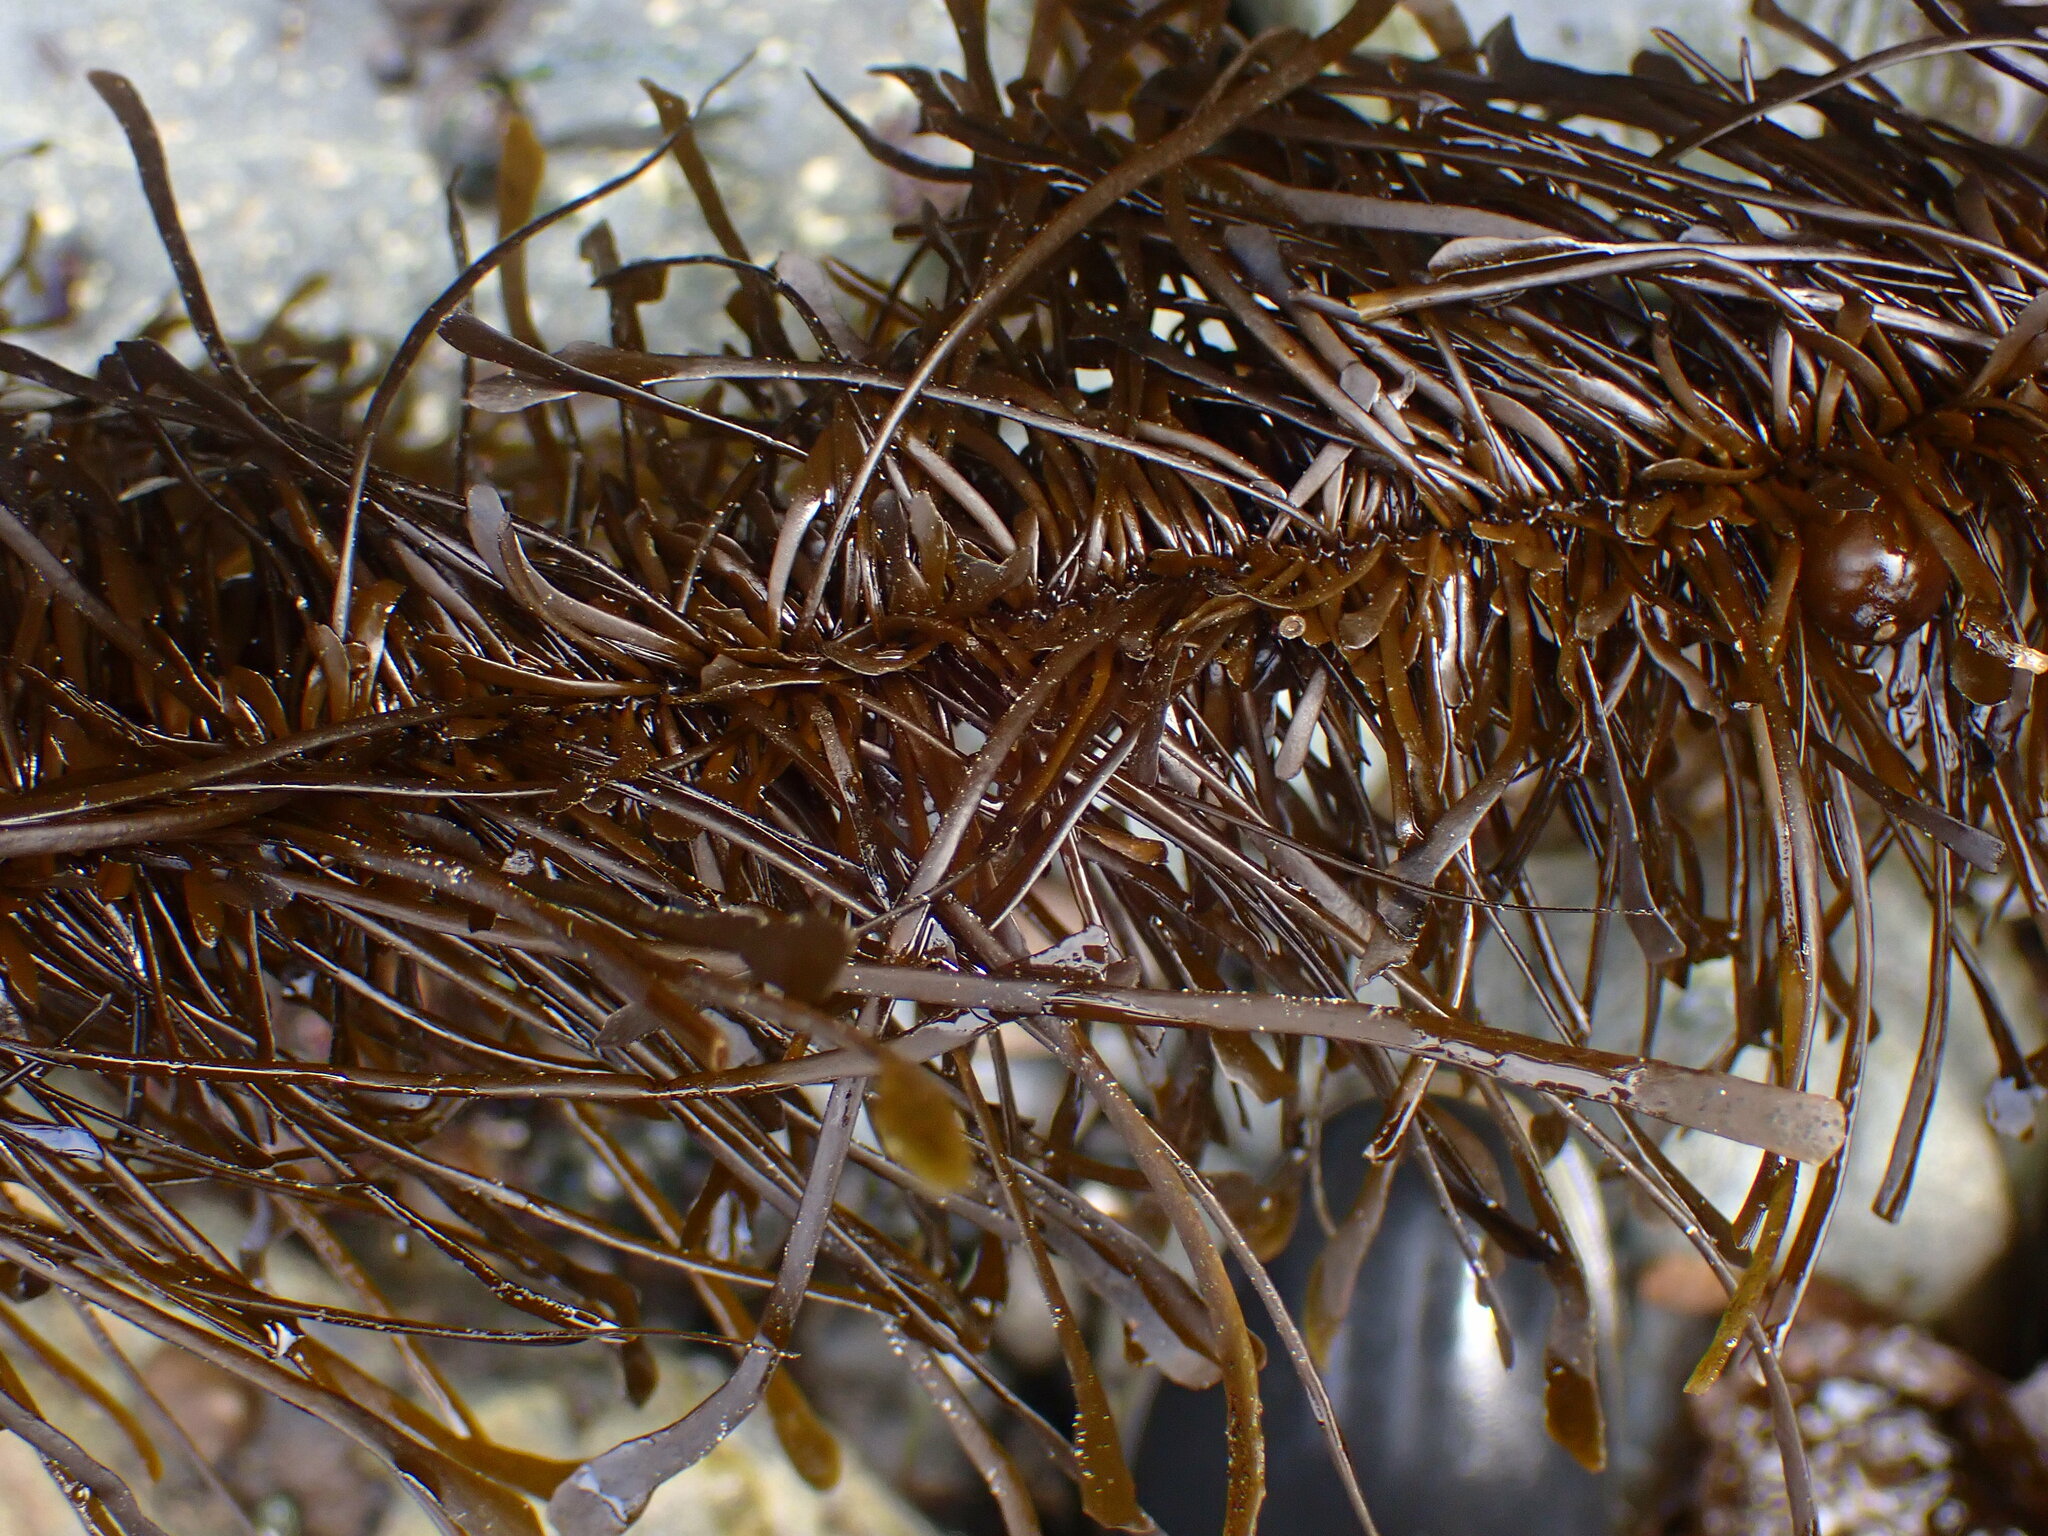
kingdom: Chromista
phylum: Ochrophyta
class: Phaeophyceae
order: Laminariales
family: Lessoniaceae
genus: Egregia
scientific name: Egregia menziesii
